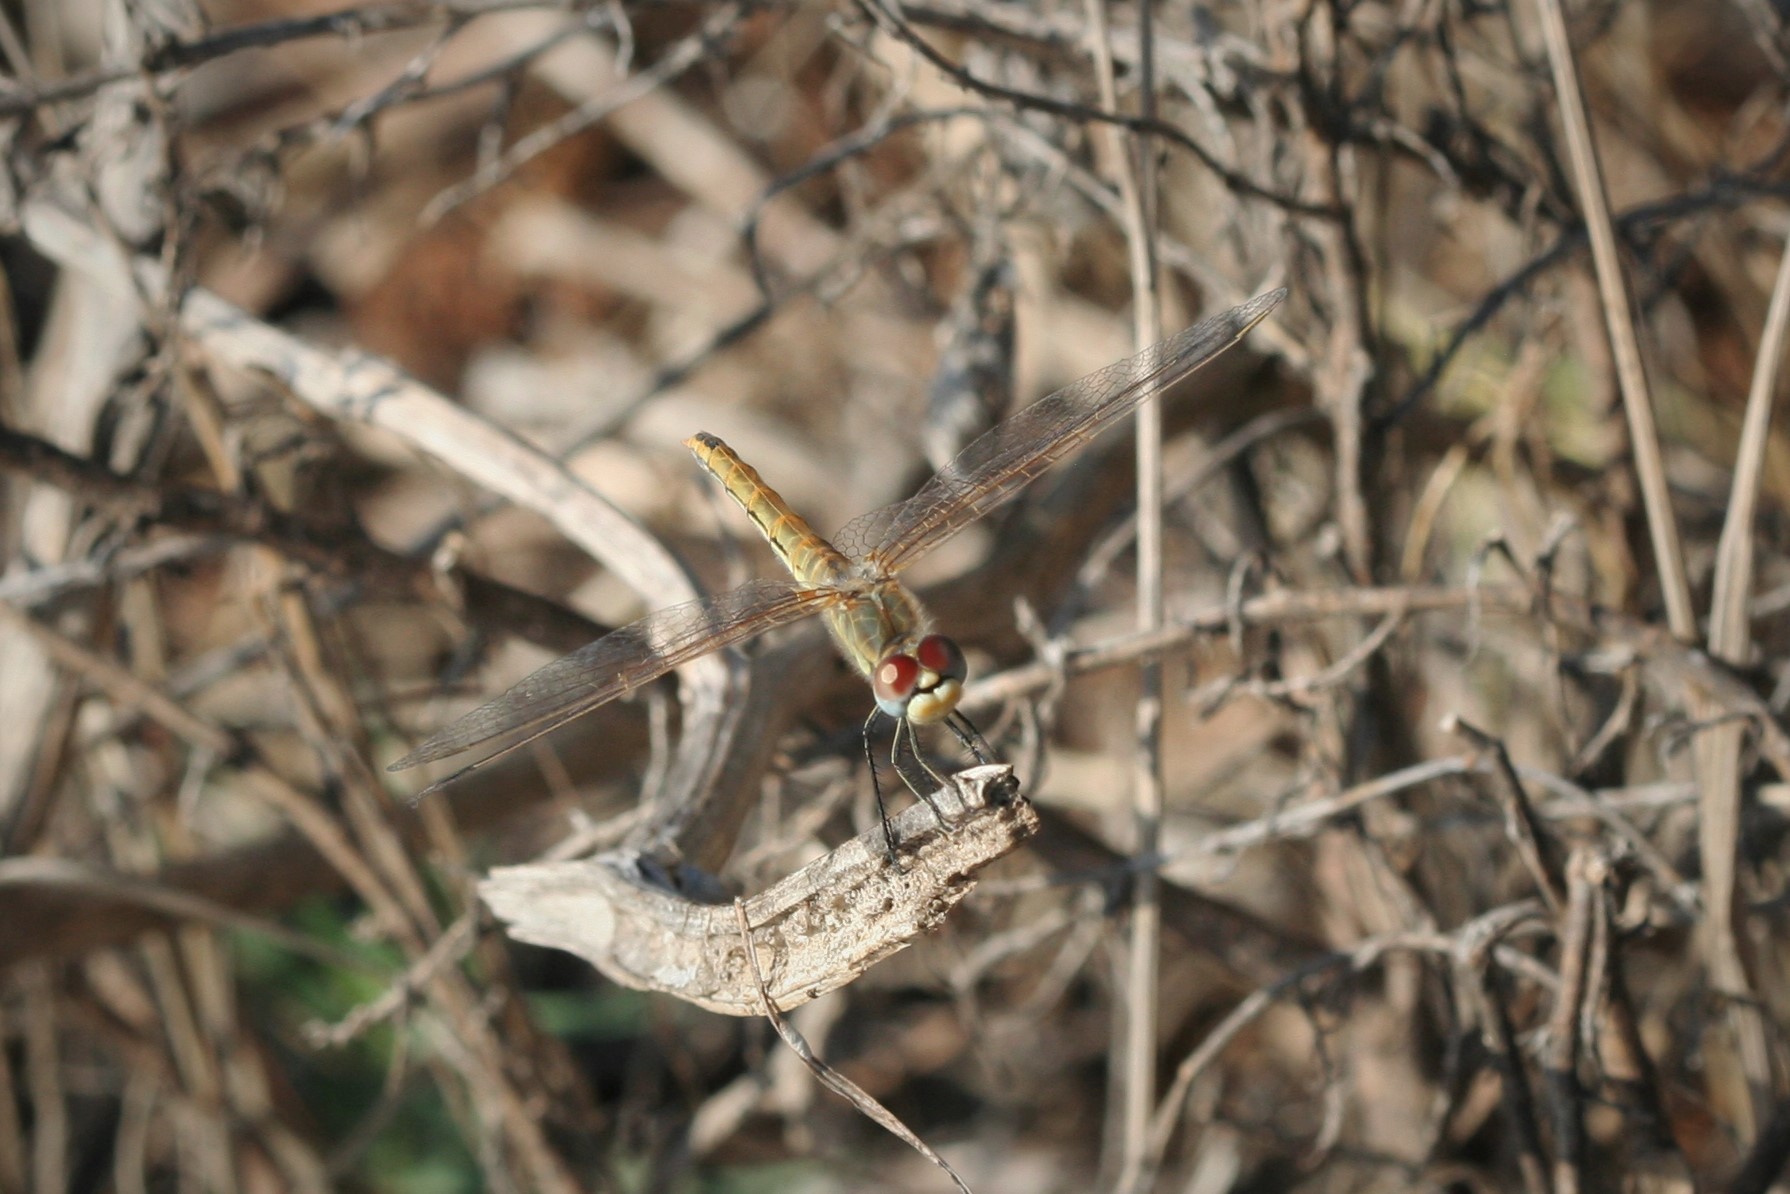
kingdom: Animalia
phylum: Arthropoda
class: Insecta
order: Odonata
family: Libellulidae
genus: Sympetrum
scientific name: Sympetrum fonscolombii
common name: Red-veined darter
